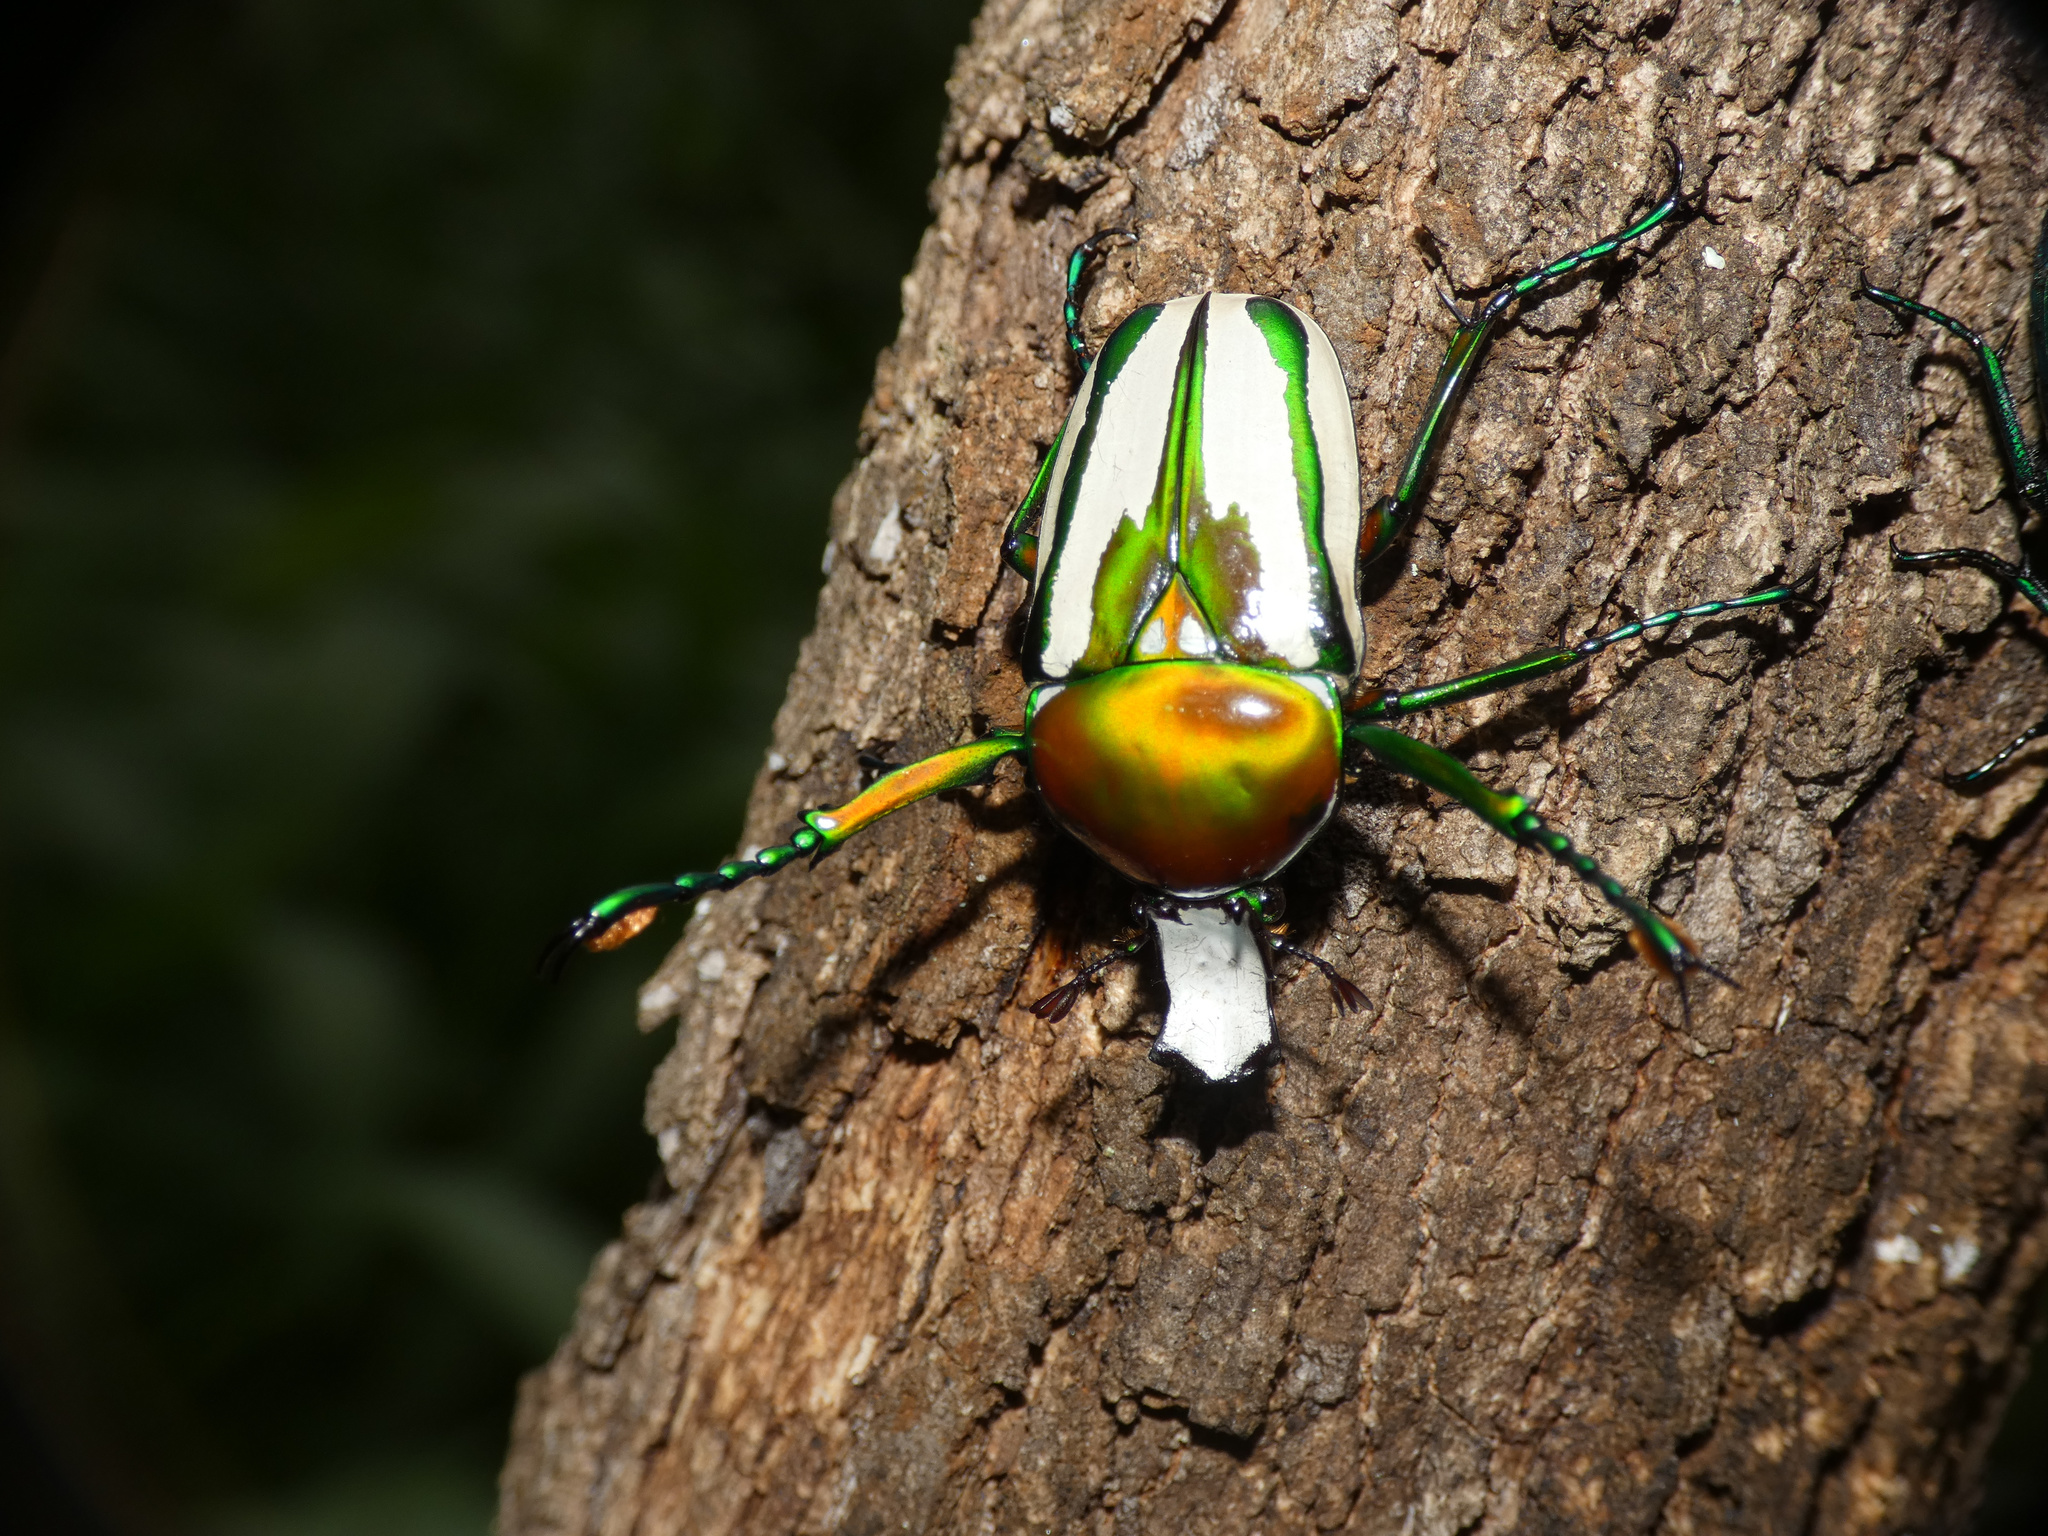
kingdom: Animalia
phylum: Arthropoda
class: Insecta
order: Coleoptera
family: Scarabaeidae
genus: Rhamphorrhina
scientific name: Rhamphorrhina splendens
